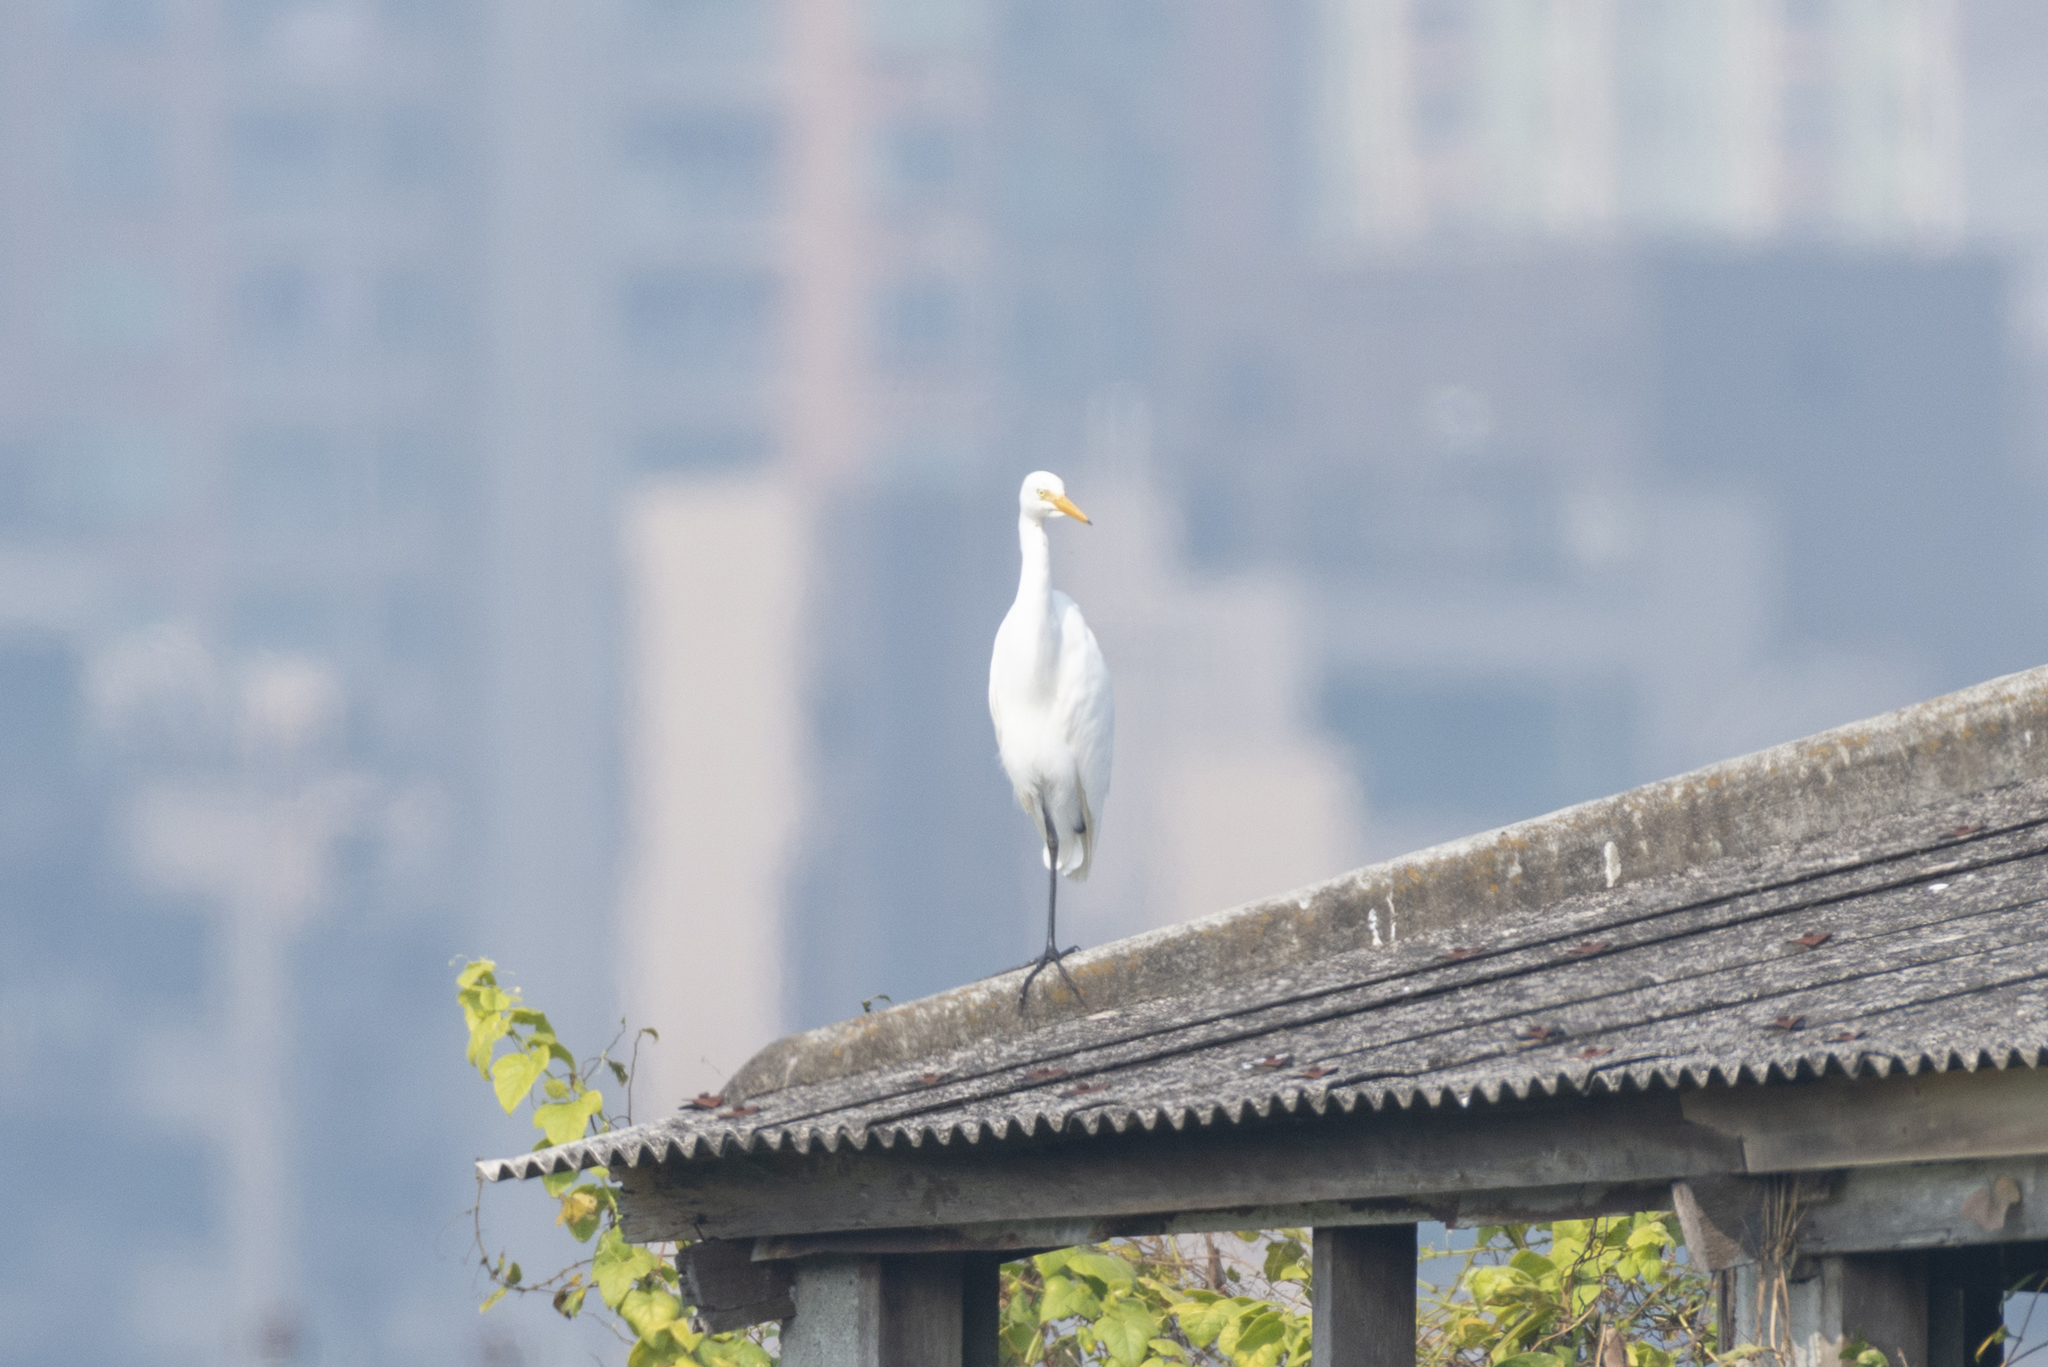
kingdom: Animalia
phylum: Chordata
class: Aves
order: Pelecaniformes
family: Ardeidae
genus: Egretta
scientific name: Egretta intermedia
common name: Intermediate egret
